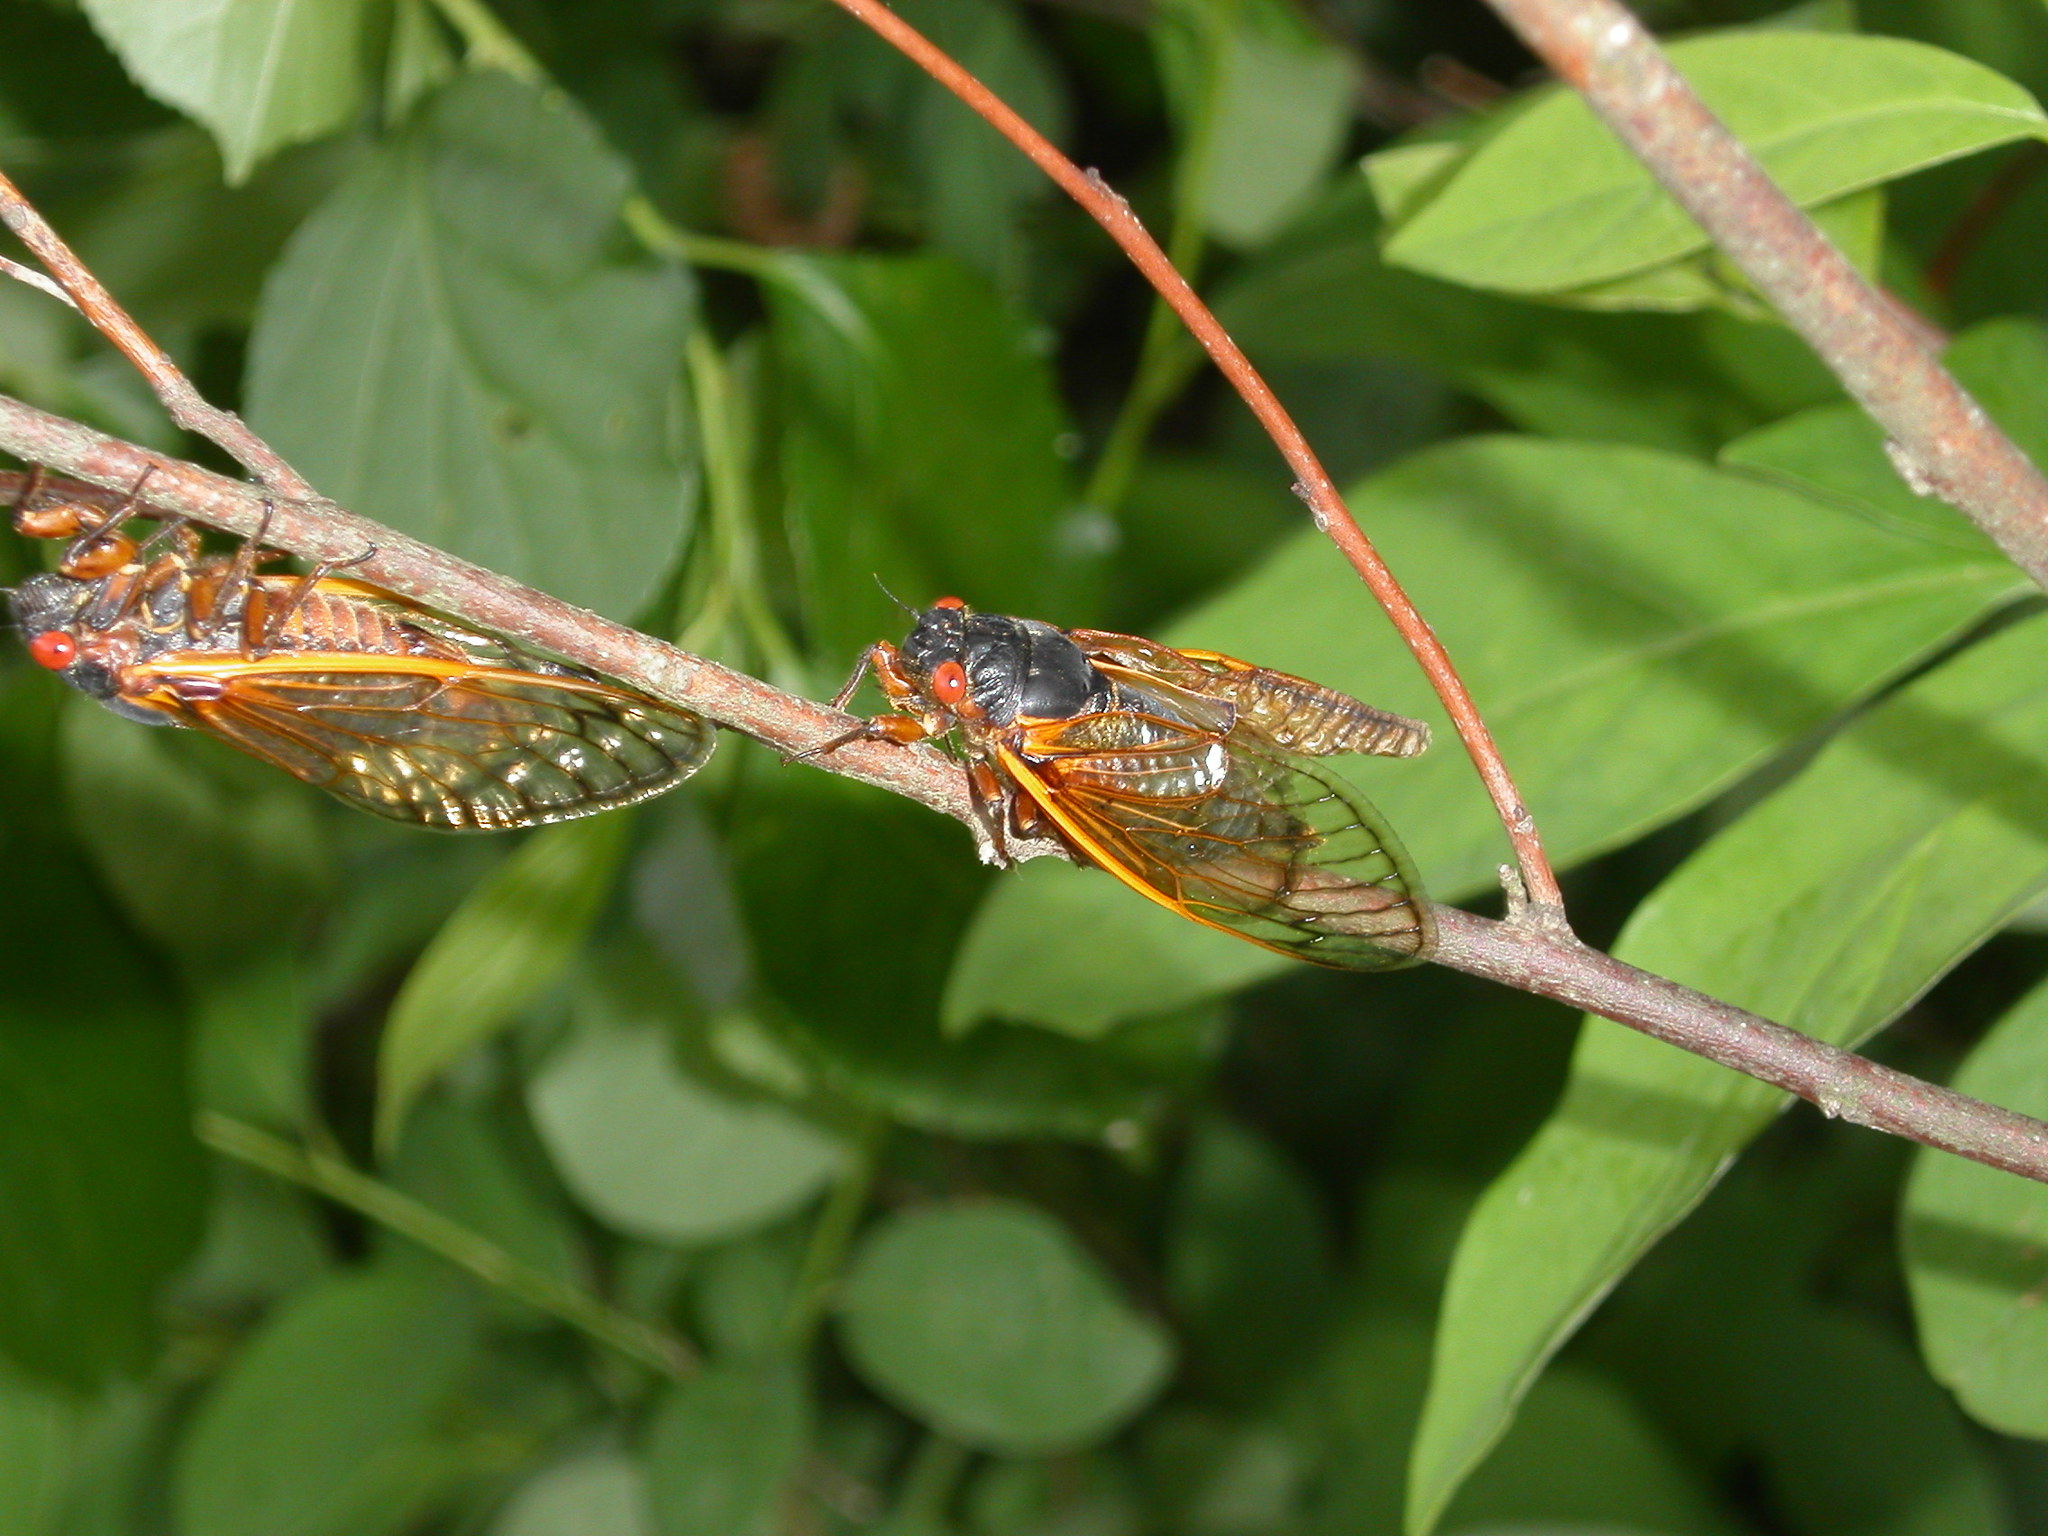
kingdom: Animalia
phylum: Arthropoda
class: Insecta
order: Hemiptera
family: Cicadidae
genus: Magicicada
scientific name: Magicicada septendecim
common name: Periodical cicada
